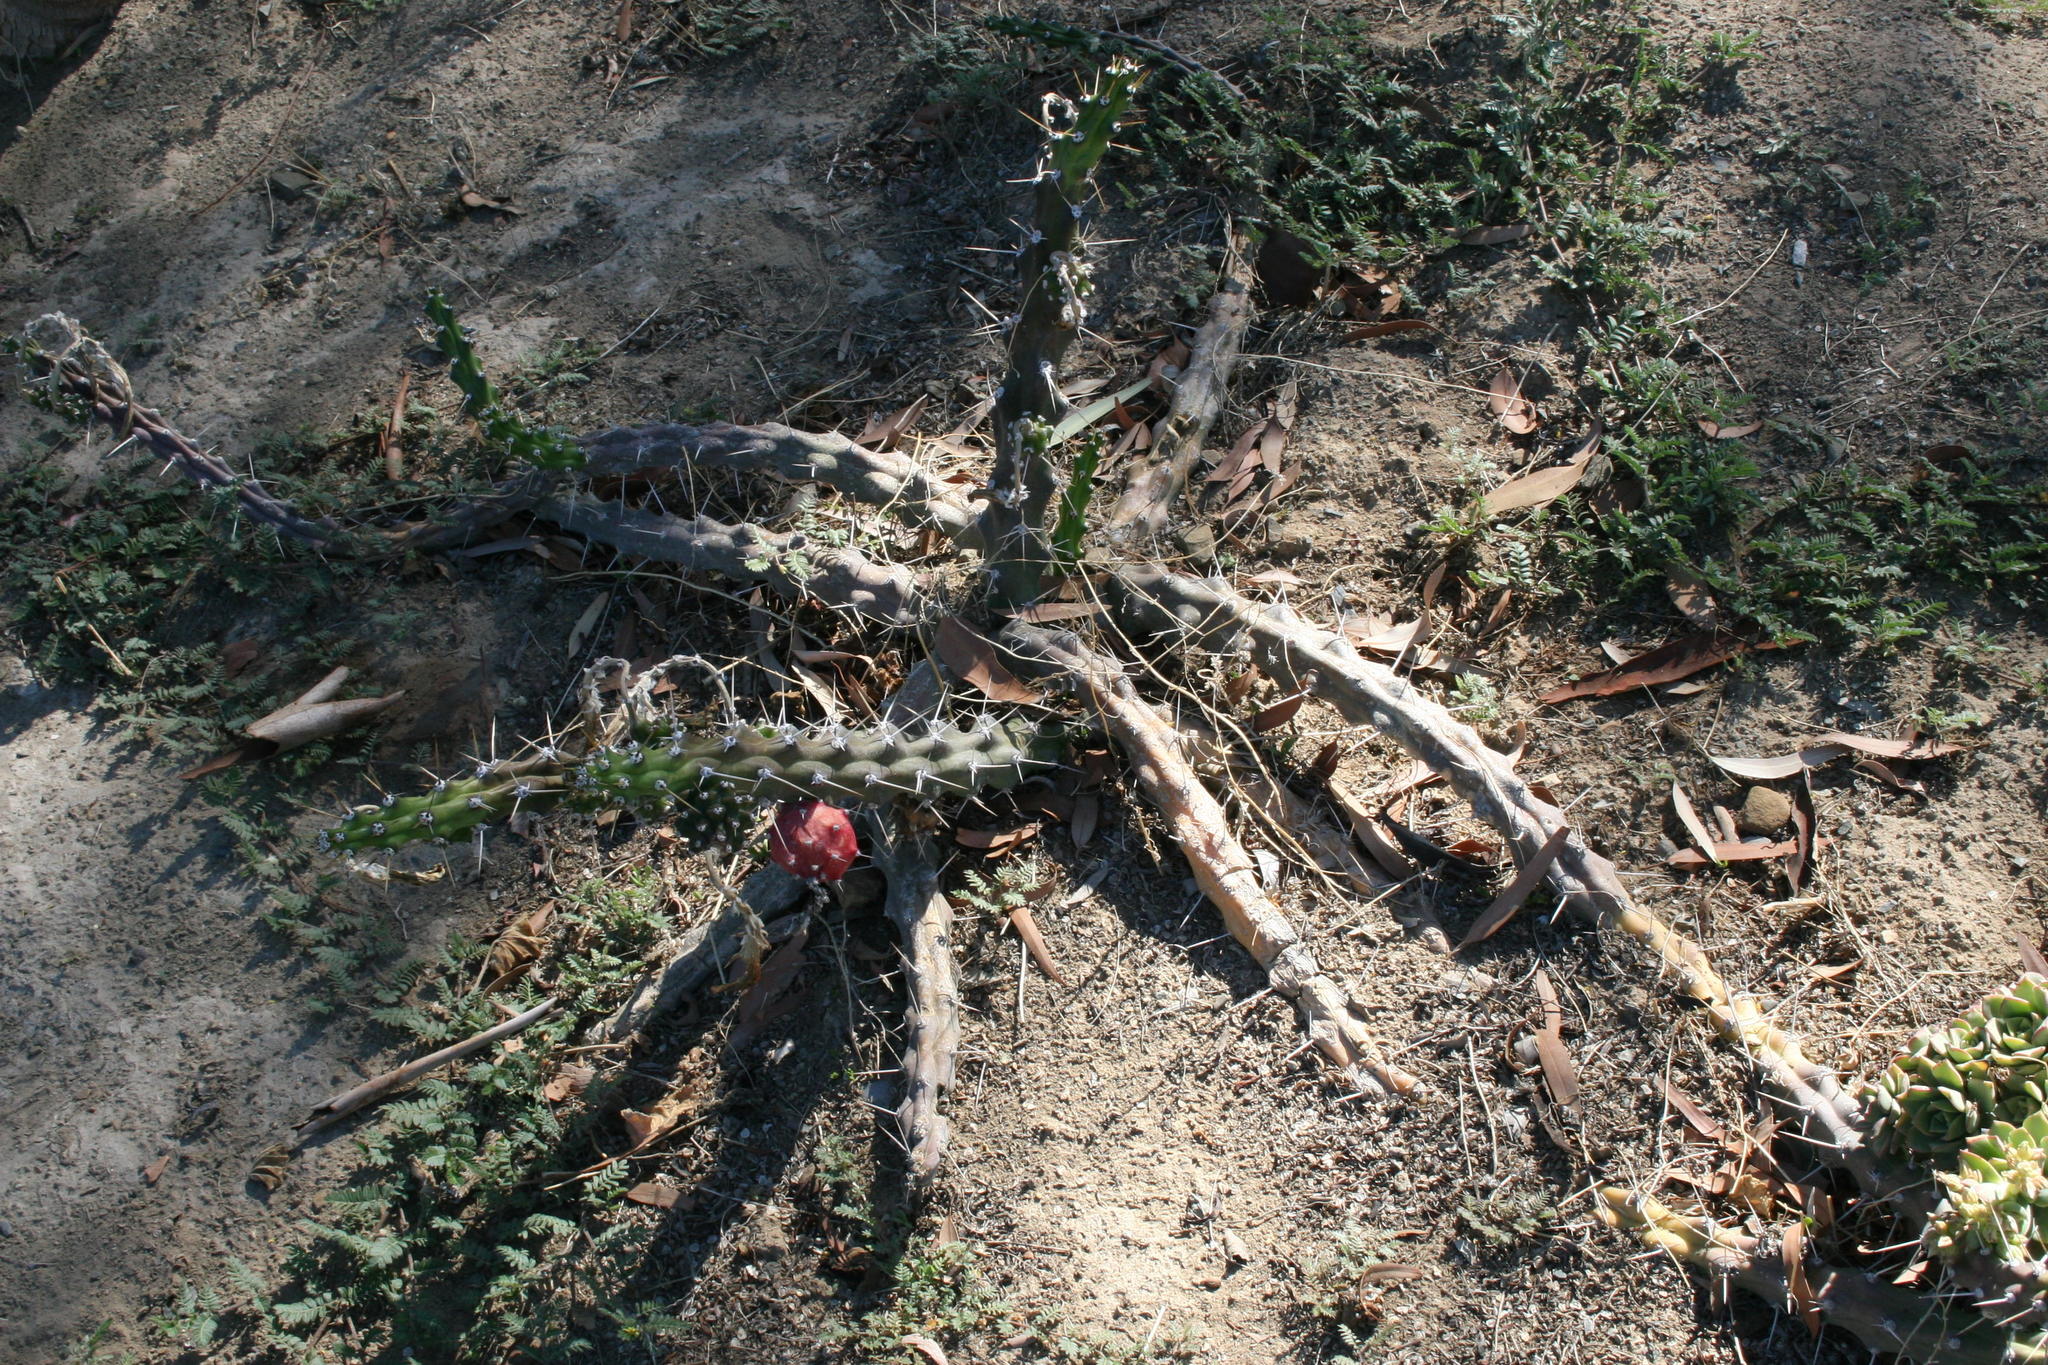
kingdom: Plantae
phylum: Tracheophyta
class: Magnoliopsida
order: Caryophyllales
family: Cactaceae
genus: Harrisia
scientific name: Harrisia martinii
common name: Moon cactus
